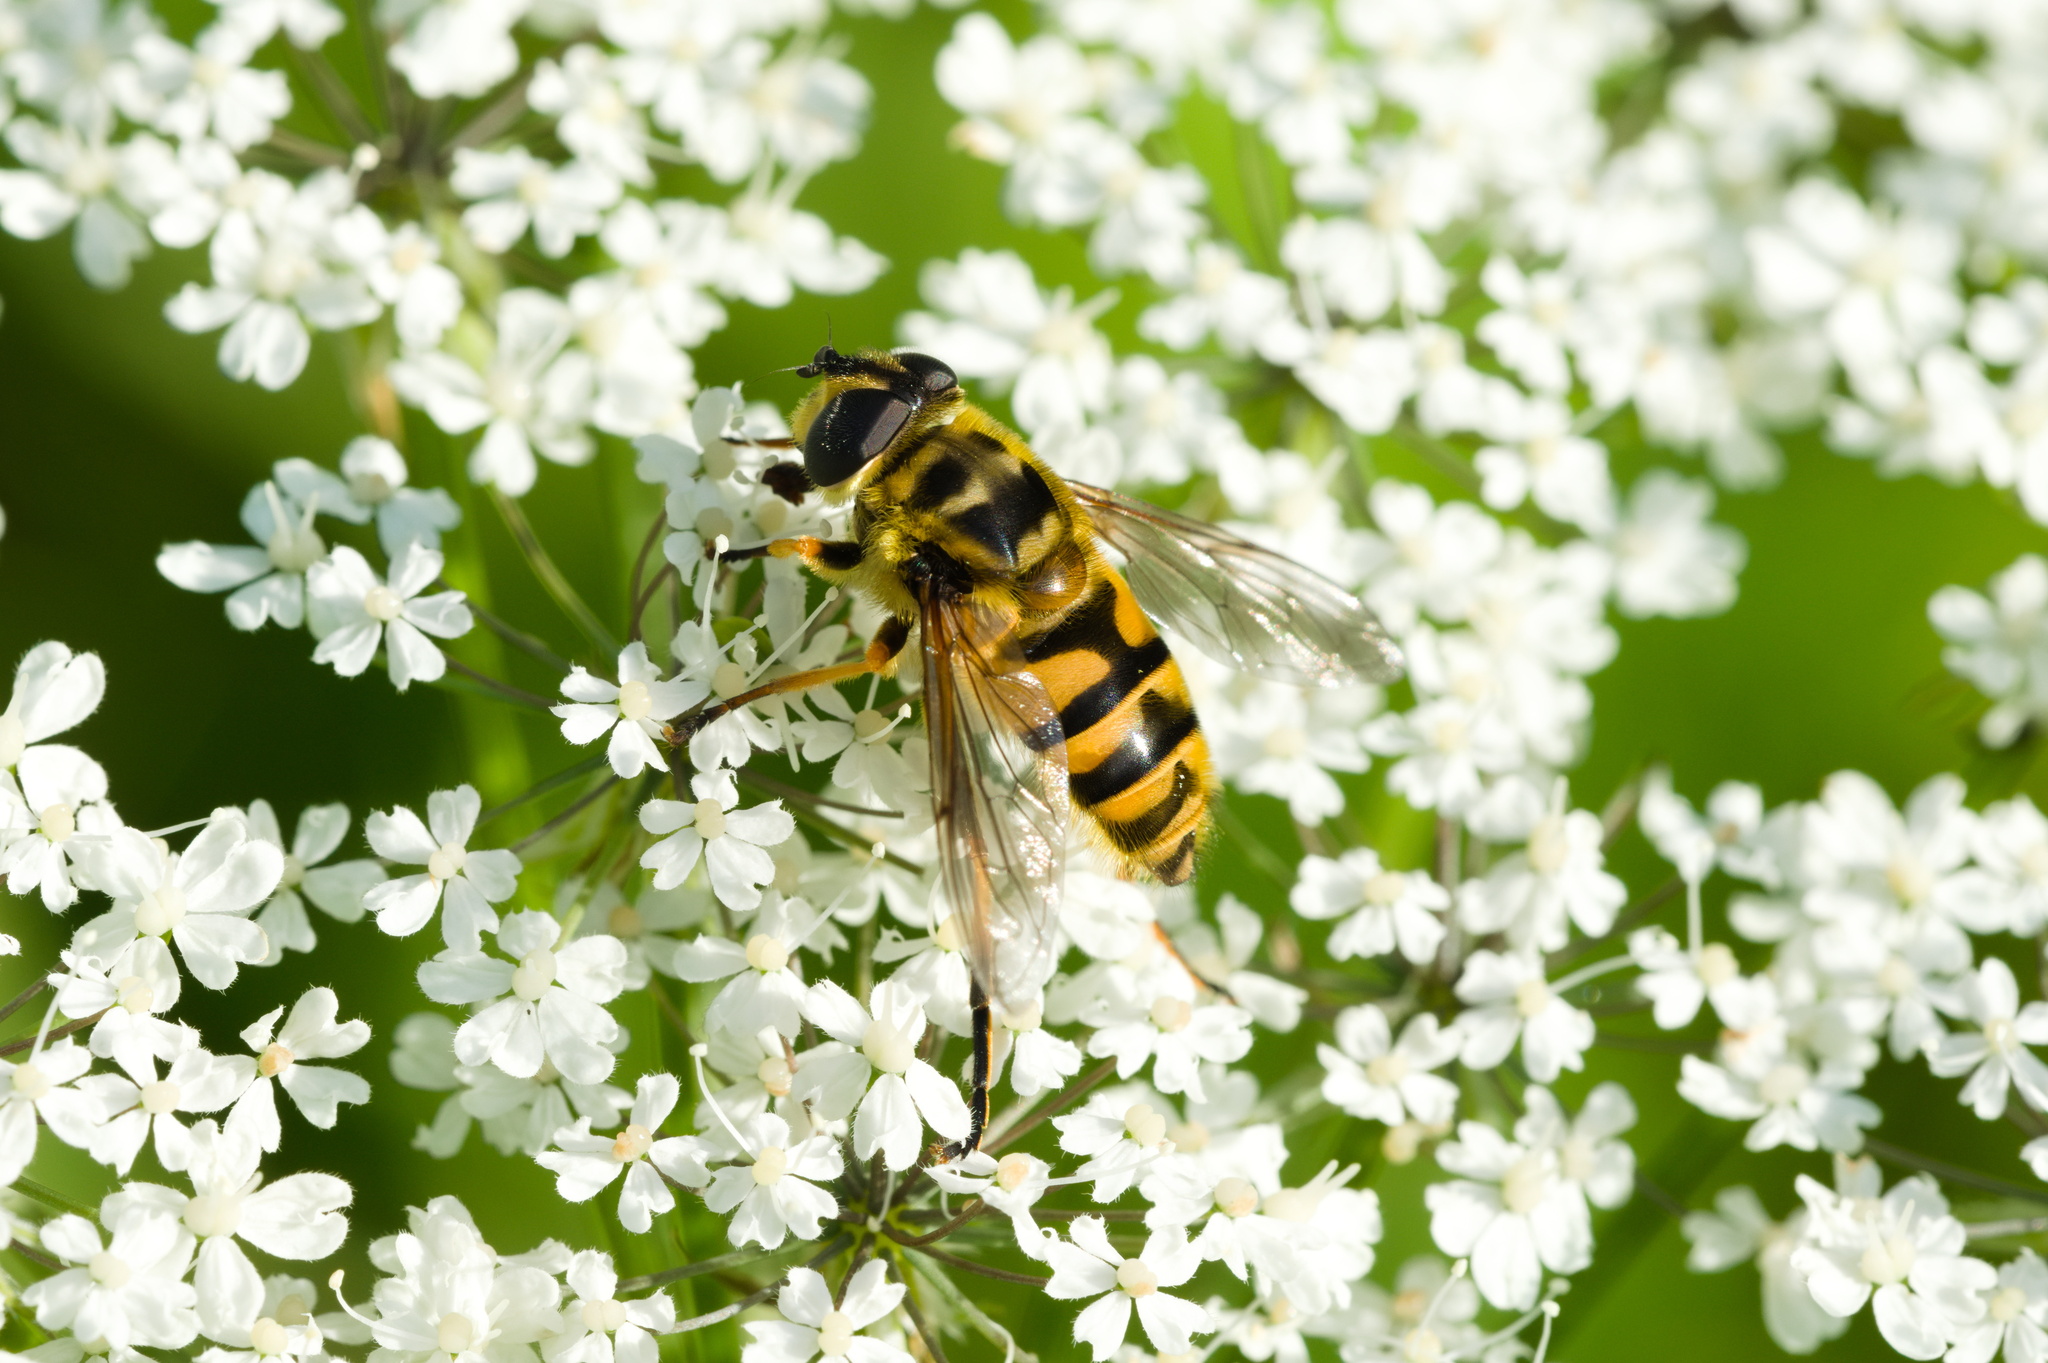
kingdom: Animalia
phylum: Arthropoda
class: Insecta
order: Diptera
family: Syrphidae
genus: Myathropa
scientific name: Myathropa florea
